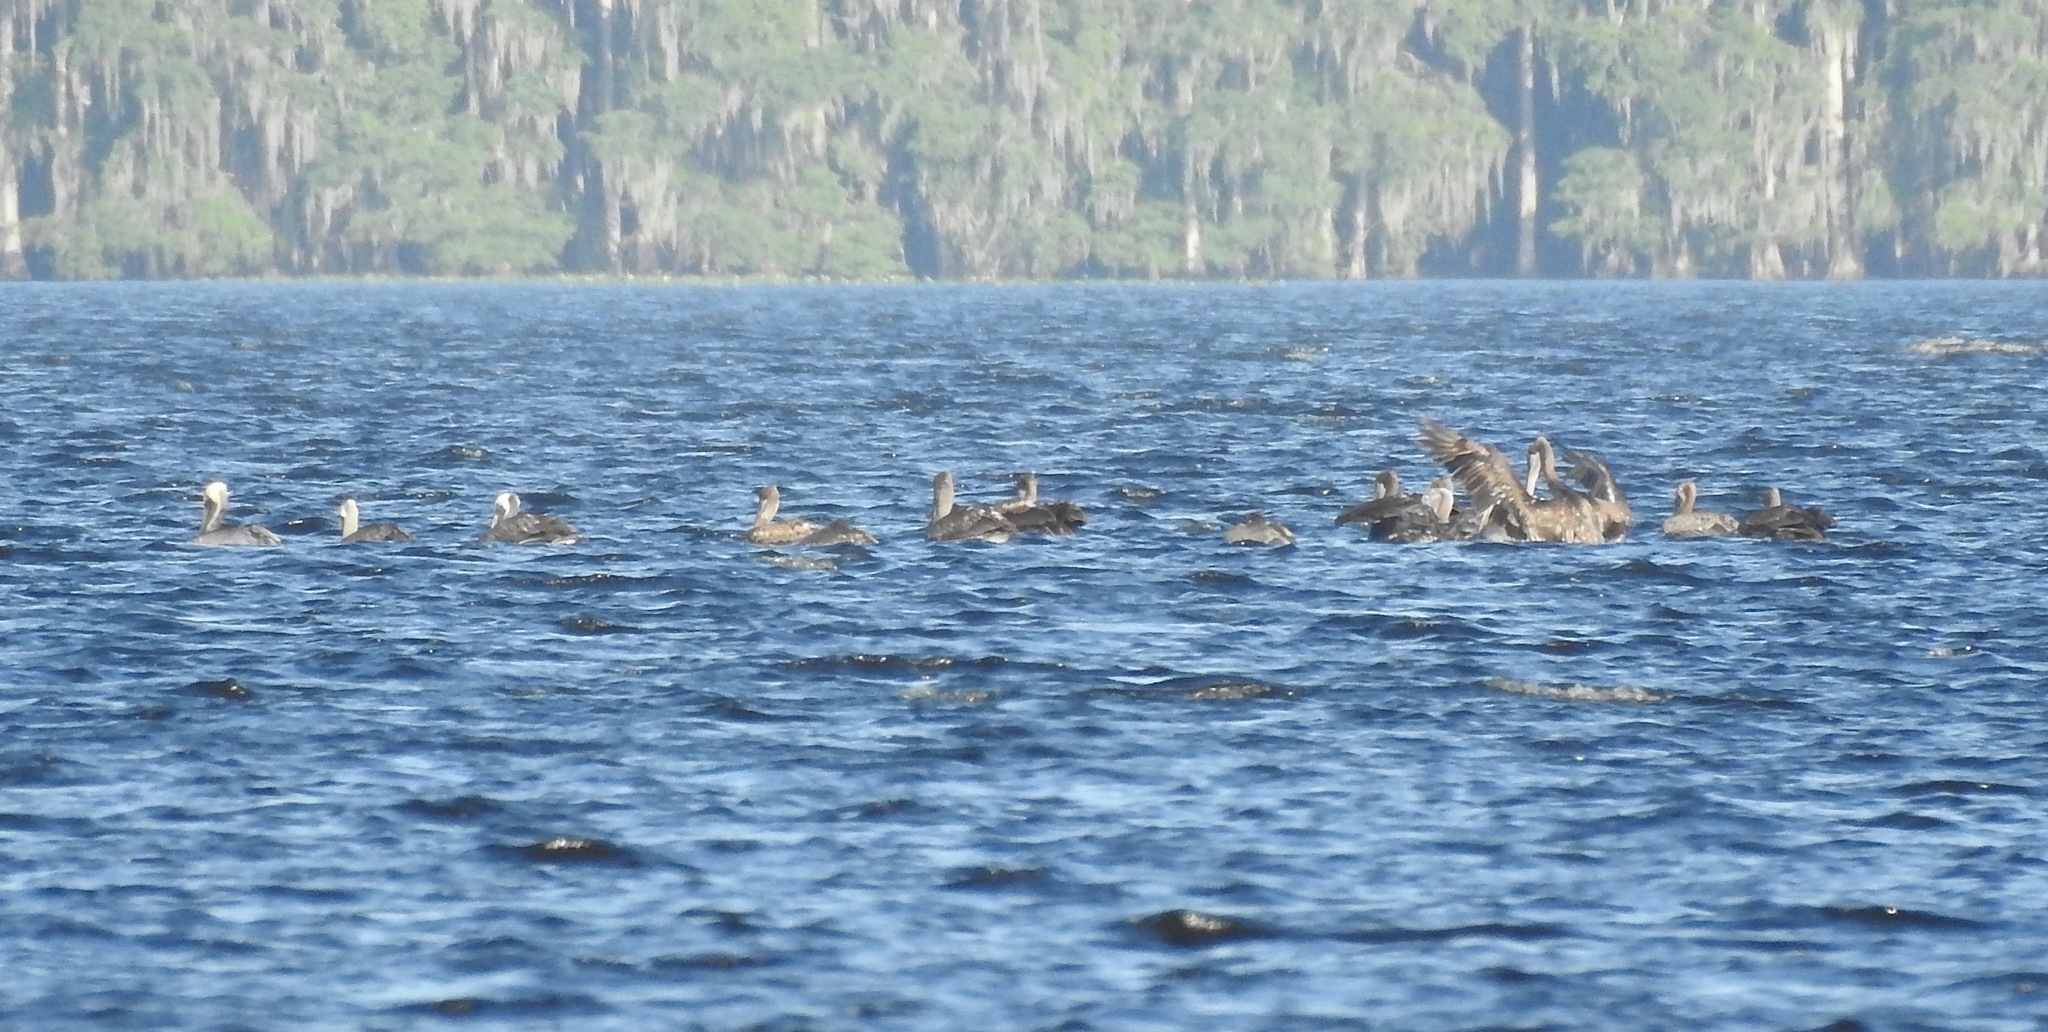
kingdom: Animalia
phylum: Chordata
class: Aves
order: Pelecaniformes
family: Pelecanidae
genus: Pelecanus
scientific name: Pelecanus occidentalis
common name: Brown pelican
